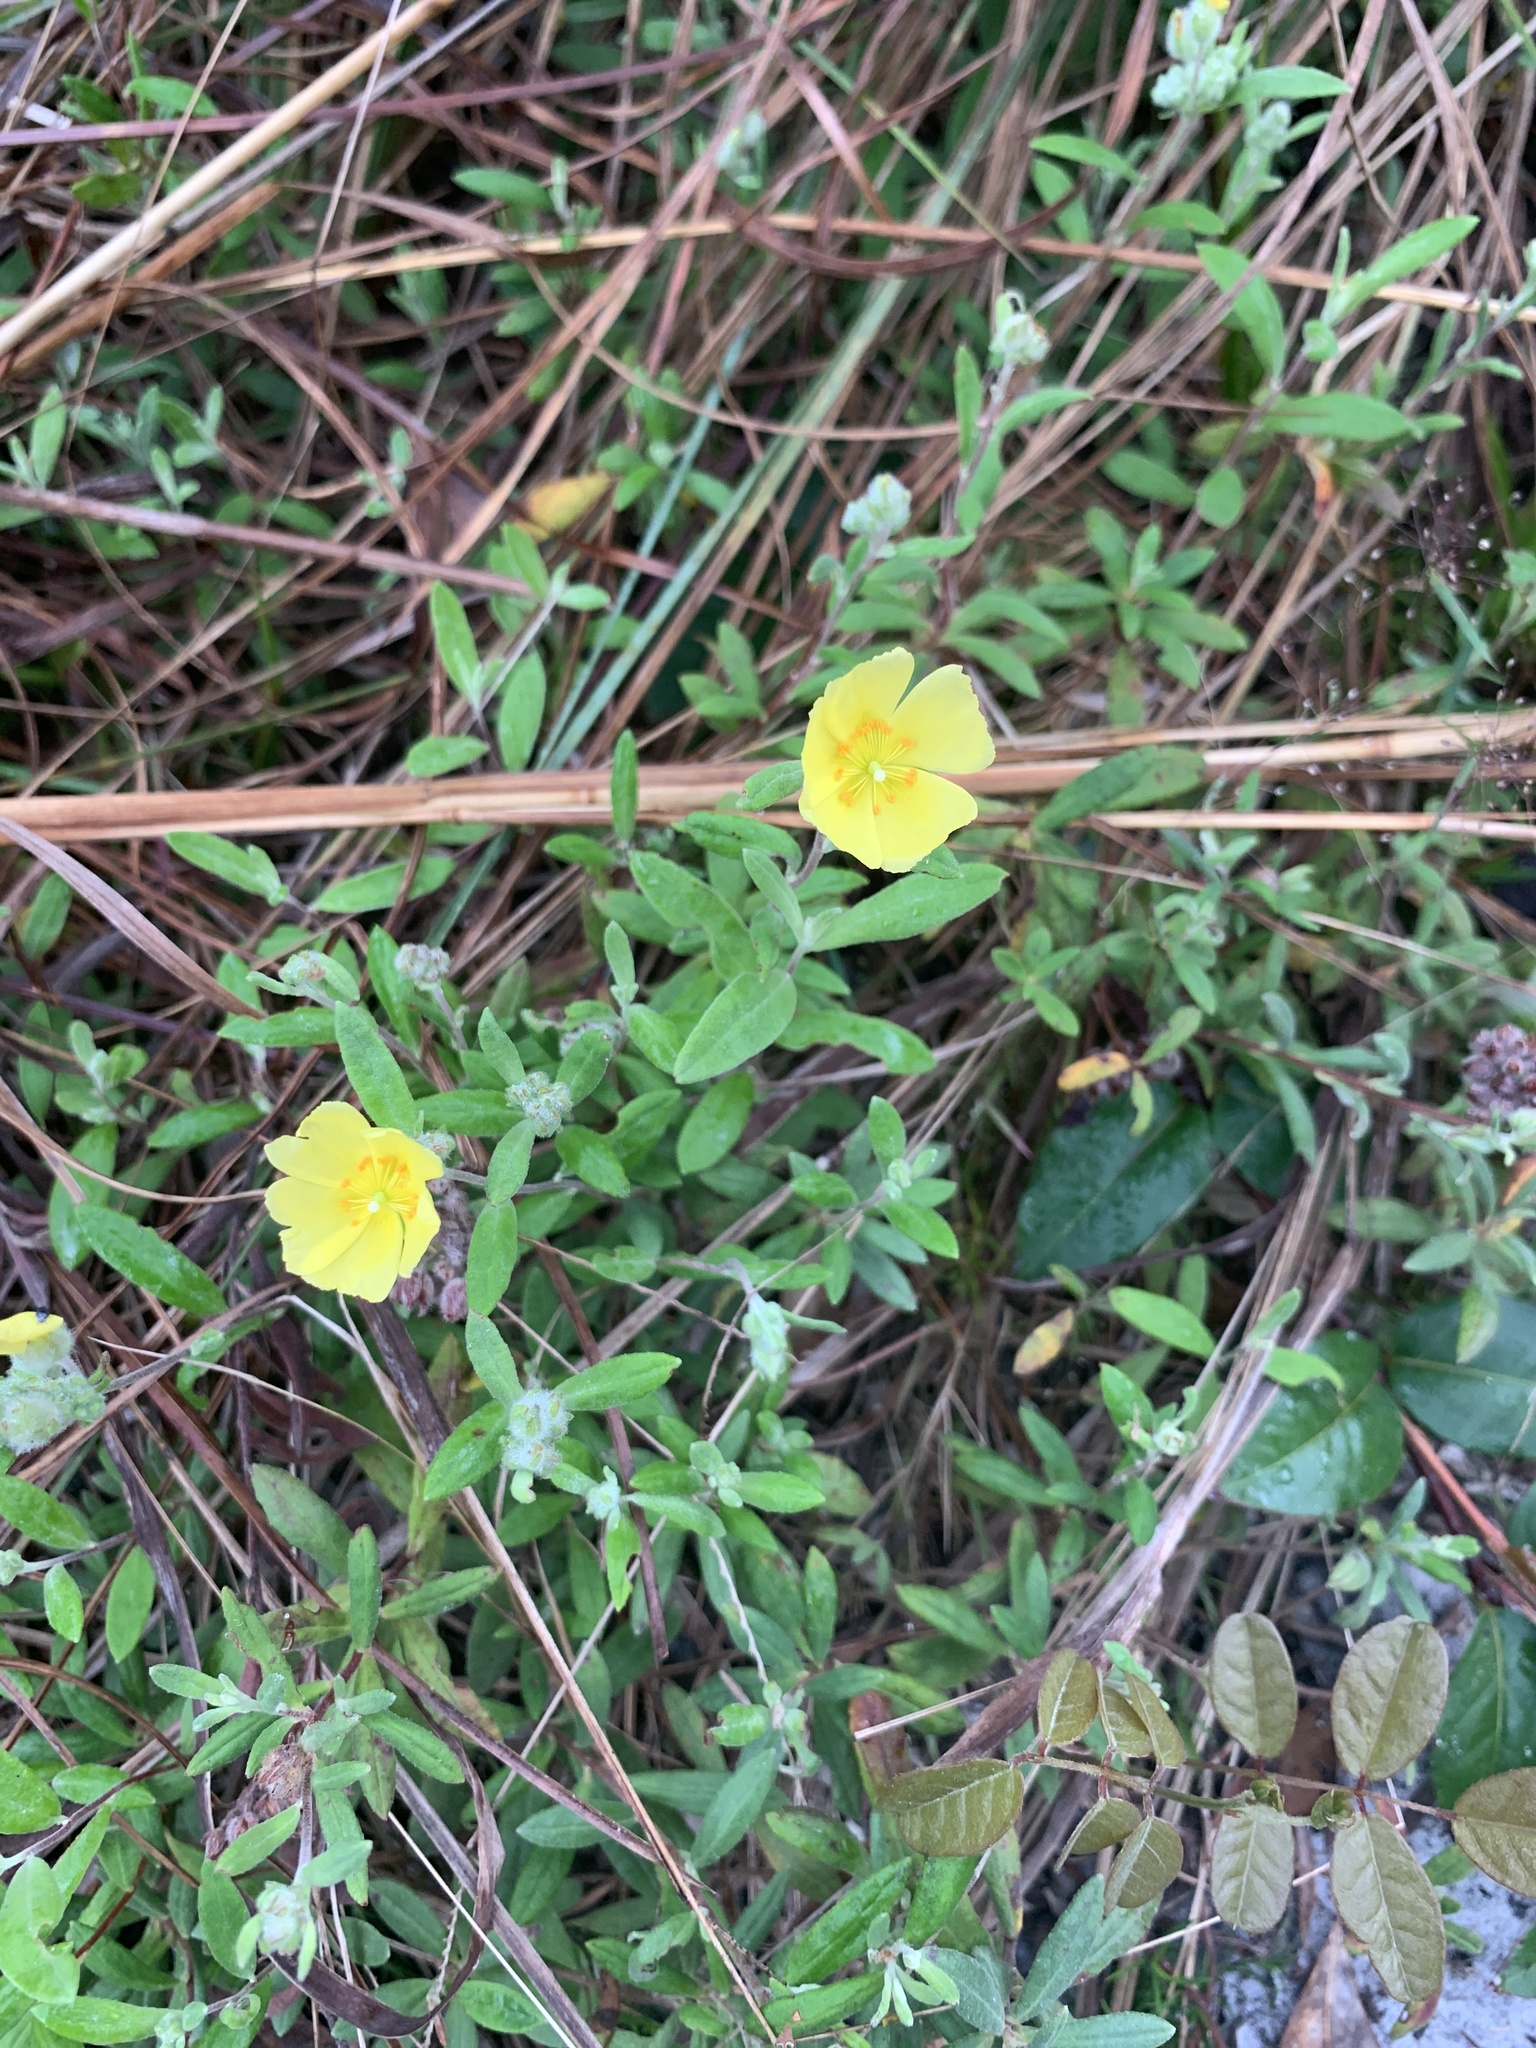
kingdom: Plantae
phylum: Tracheophyta
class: Magnoliopsida
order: Malvales
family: Cistaceae
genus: Crocanthemum
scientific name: Crocanthemum corymbosum
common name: Pinebarren sun-rose
